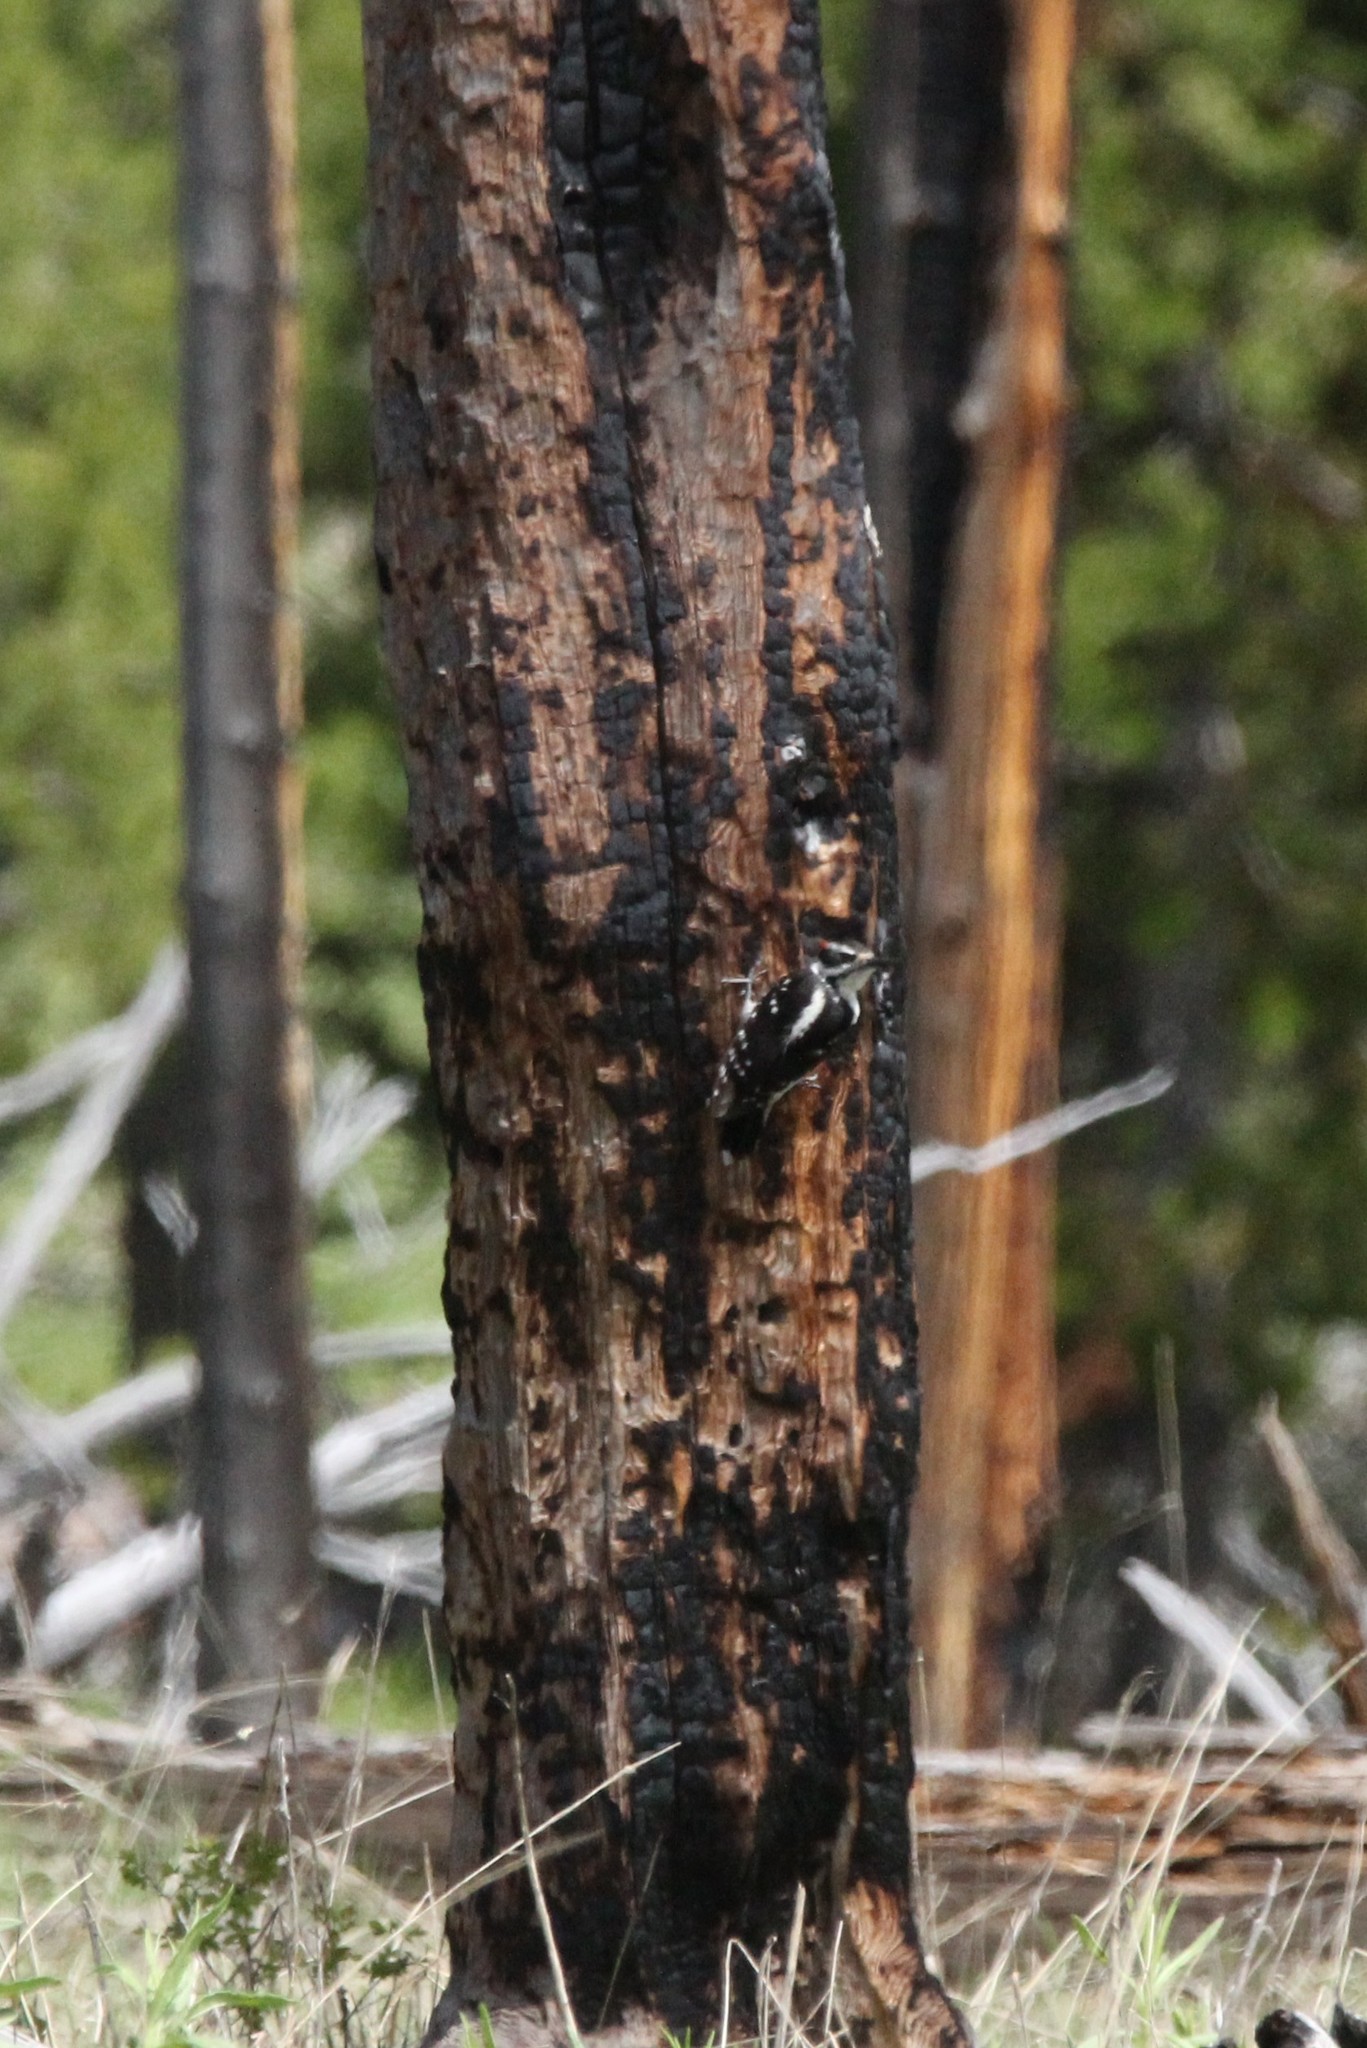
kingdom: Animalia
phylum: Chordata
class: Aves
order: Piciformes
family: Picidae
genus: Leuconotopicus
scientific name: Leuconotopicus villosus
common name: Hairy woodpecker
